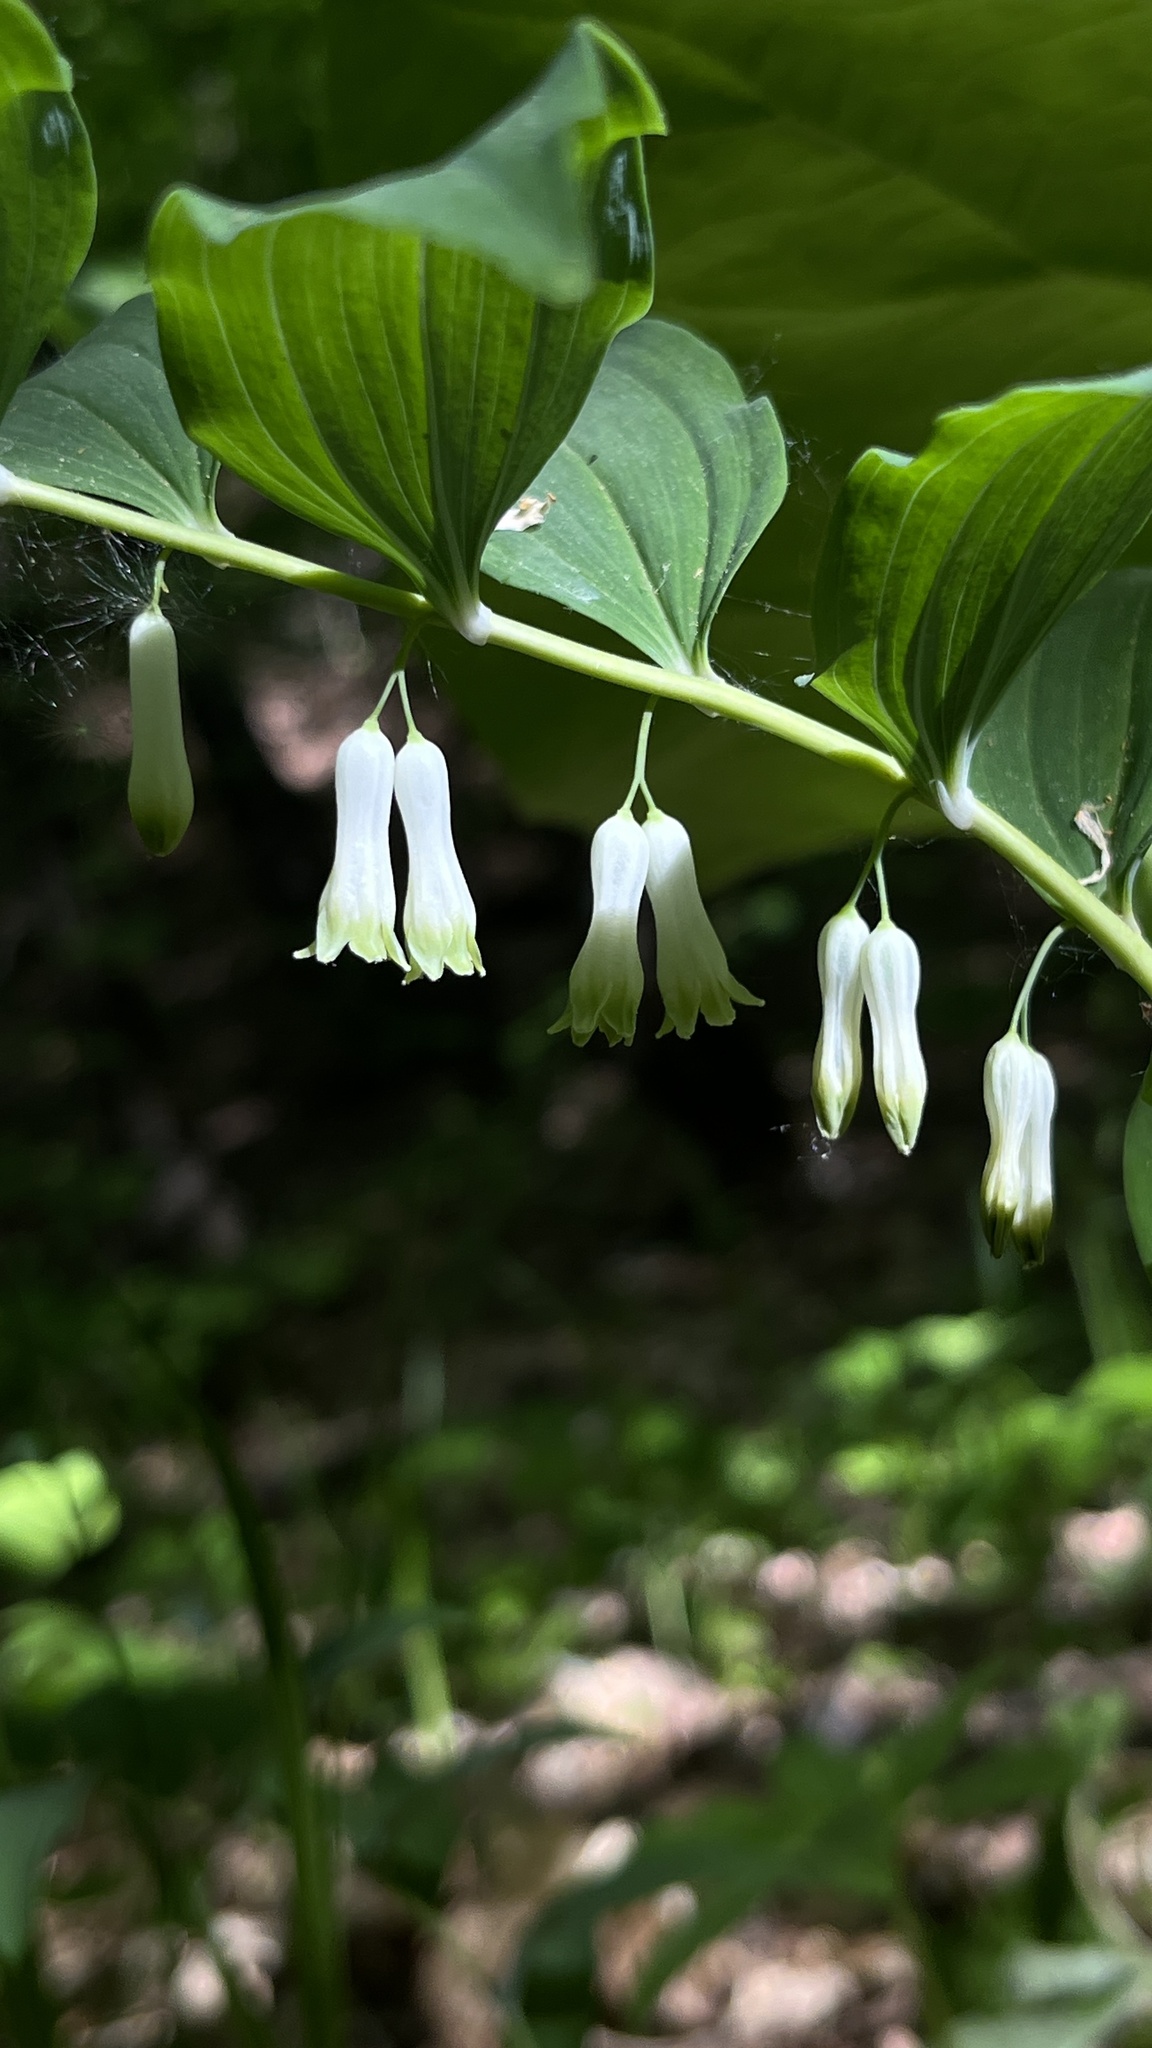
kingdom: Plantae
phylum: Tracheophyta
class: Liliopsida
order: Asparagales
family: Asparagaceae
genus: Polygonatum
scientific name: Polygonatum multiflorum
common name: Solomon's-seal
